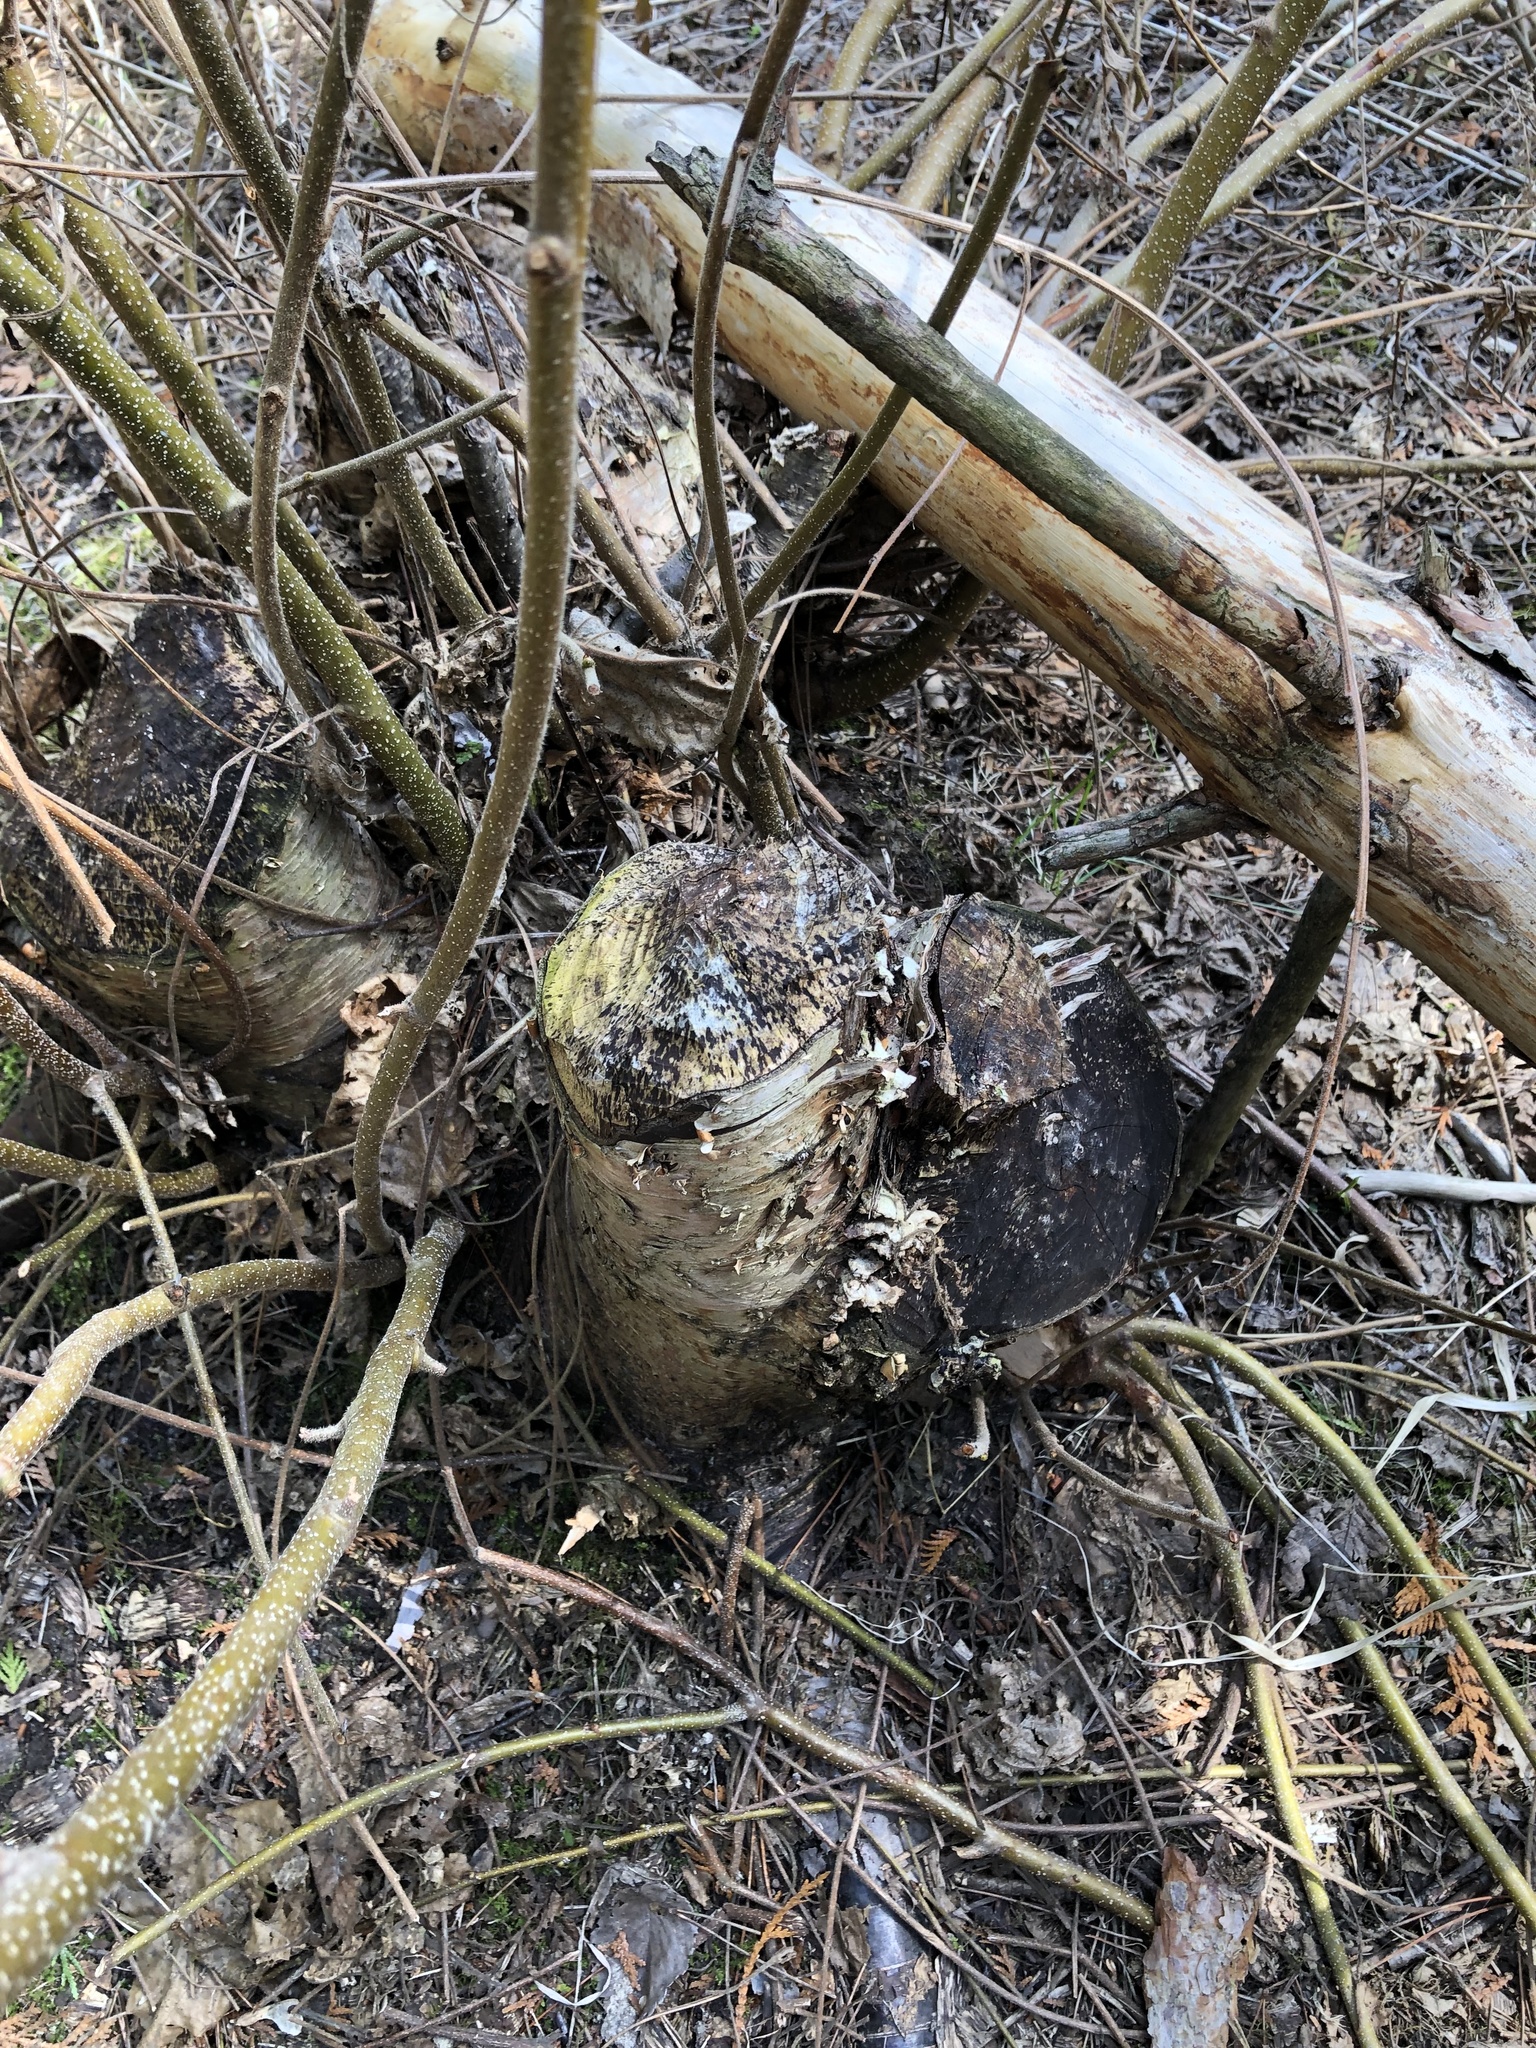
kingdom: Animalia
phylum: Chordata
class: Mammalia
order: Rodentia
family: Castoridae
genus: Castor
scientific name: Castor canadensis
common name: American beaver
